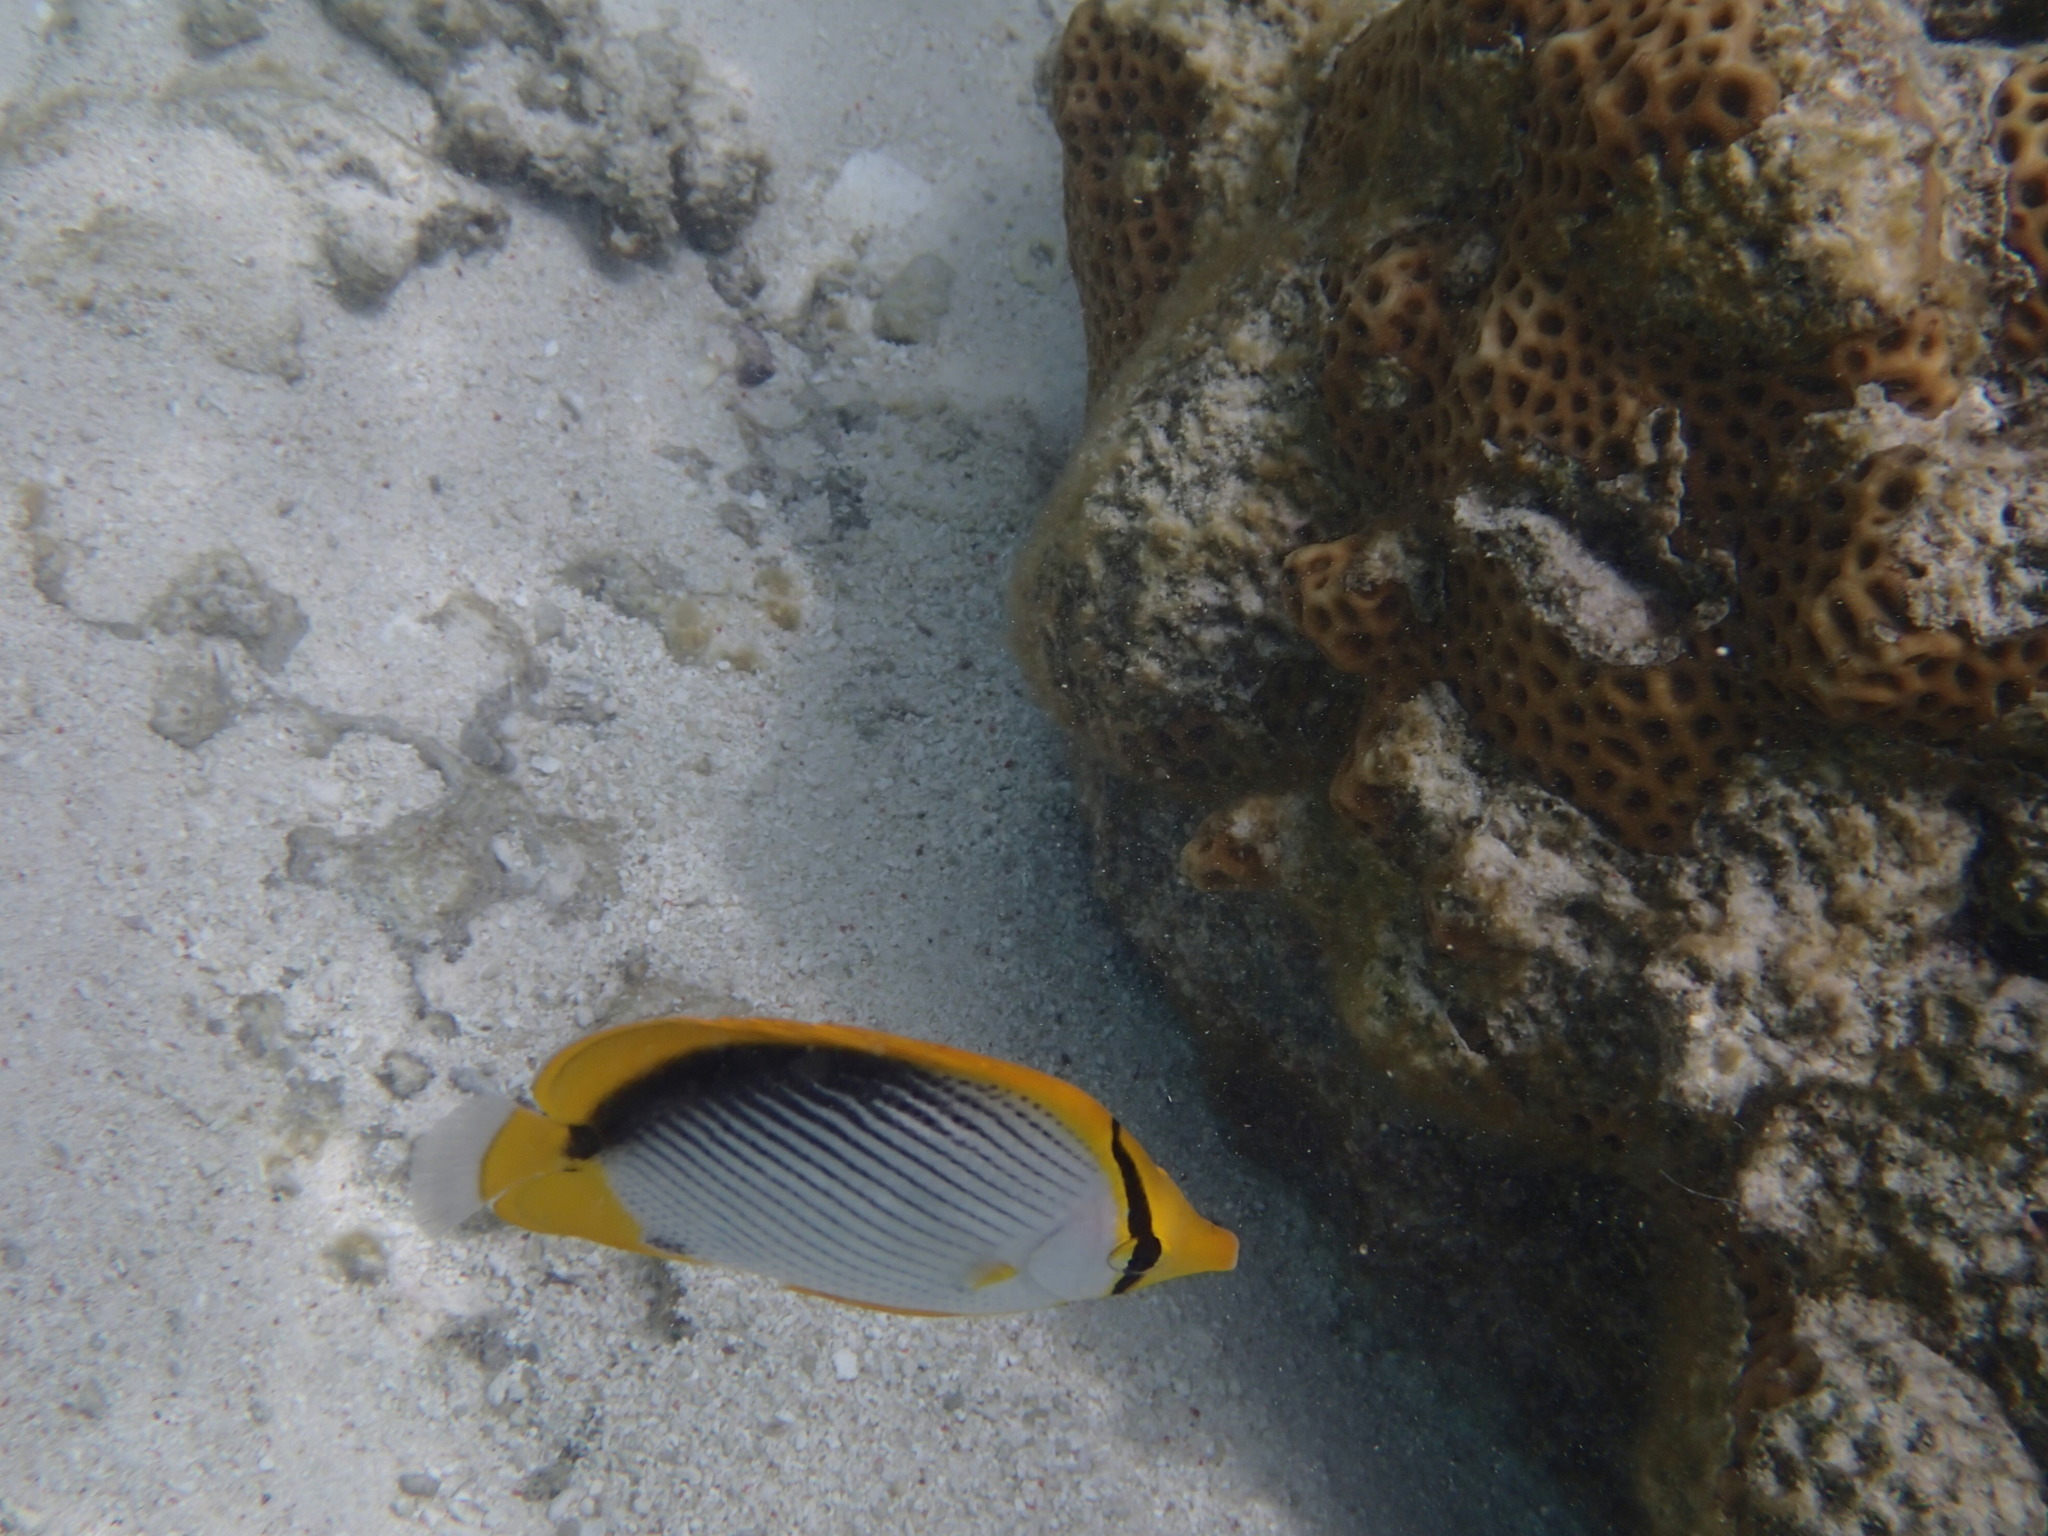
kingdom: Animalia
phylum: Chordata
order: Perciformes
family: Chaetodontidae
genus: Chaetodon
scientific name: Chaetodon melannotus
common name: Blackback butterflyfish
